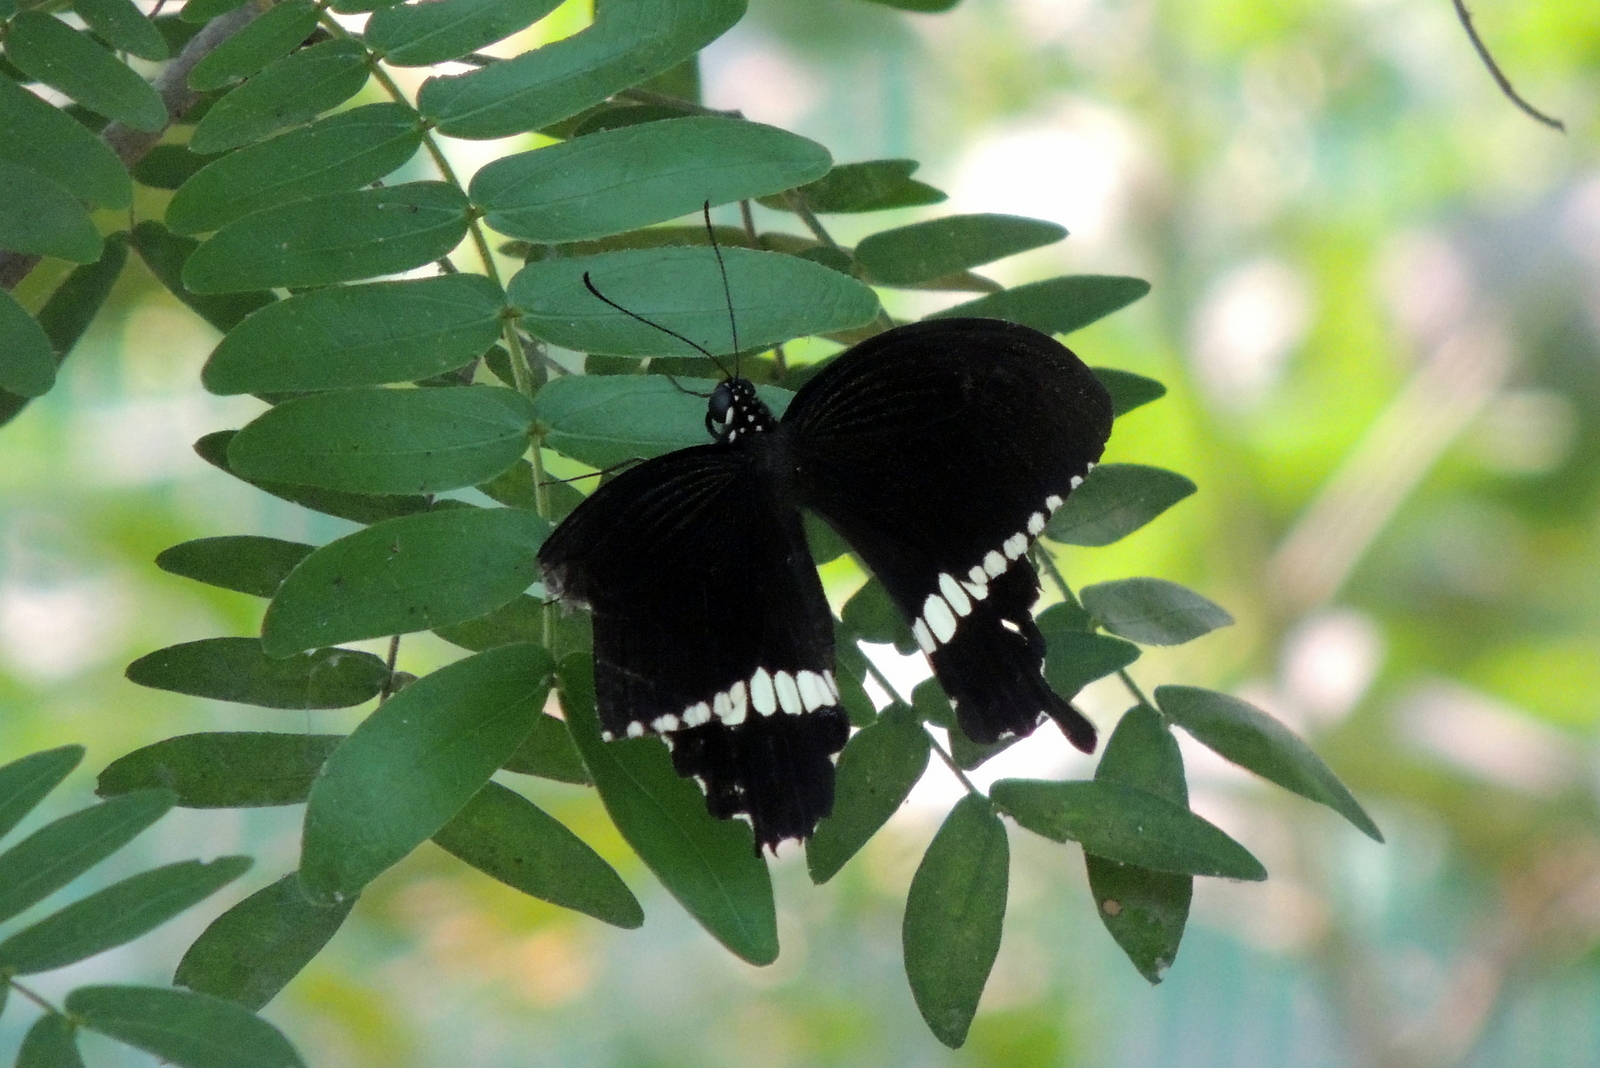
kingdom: Animalia
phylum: Arthropoda
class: Insecta
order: Lepidoptera
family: Papilionidae
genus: Papilio
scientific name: Papilio polytes
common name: Common mormon
